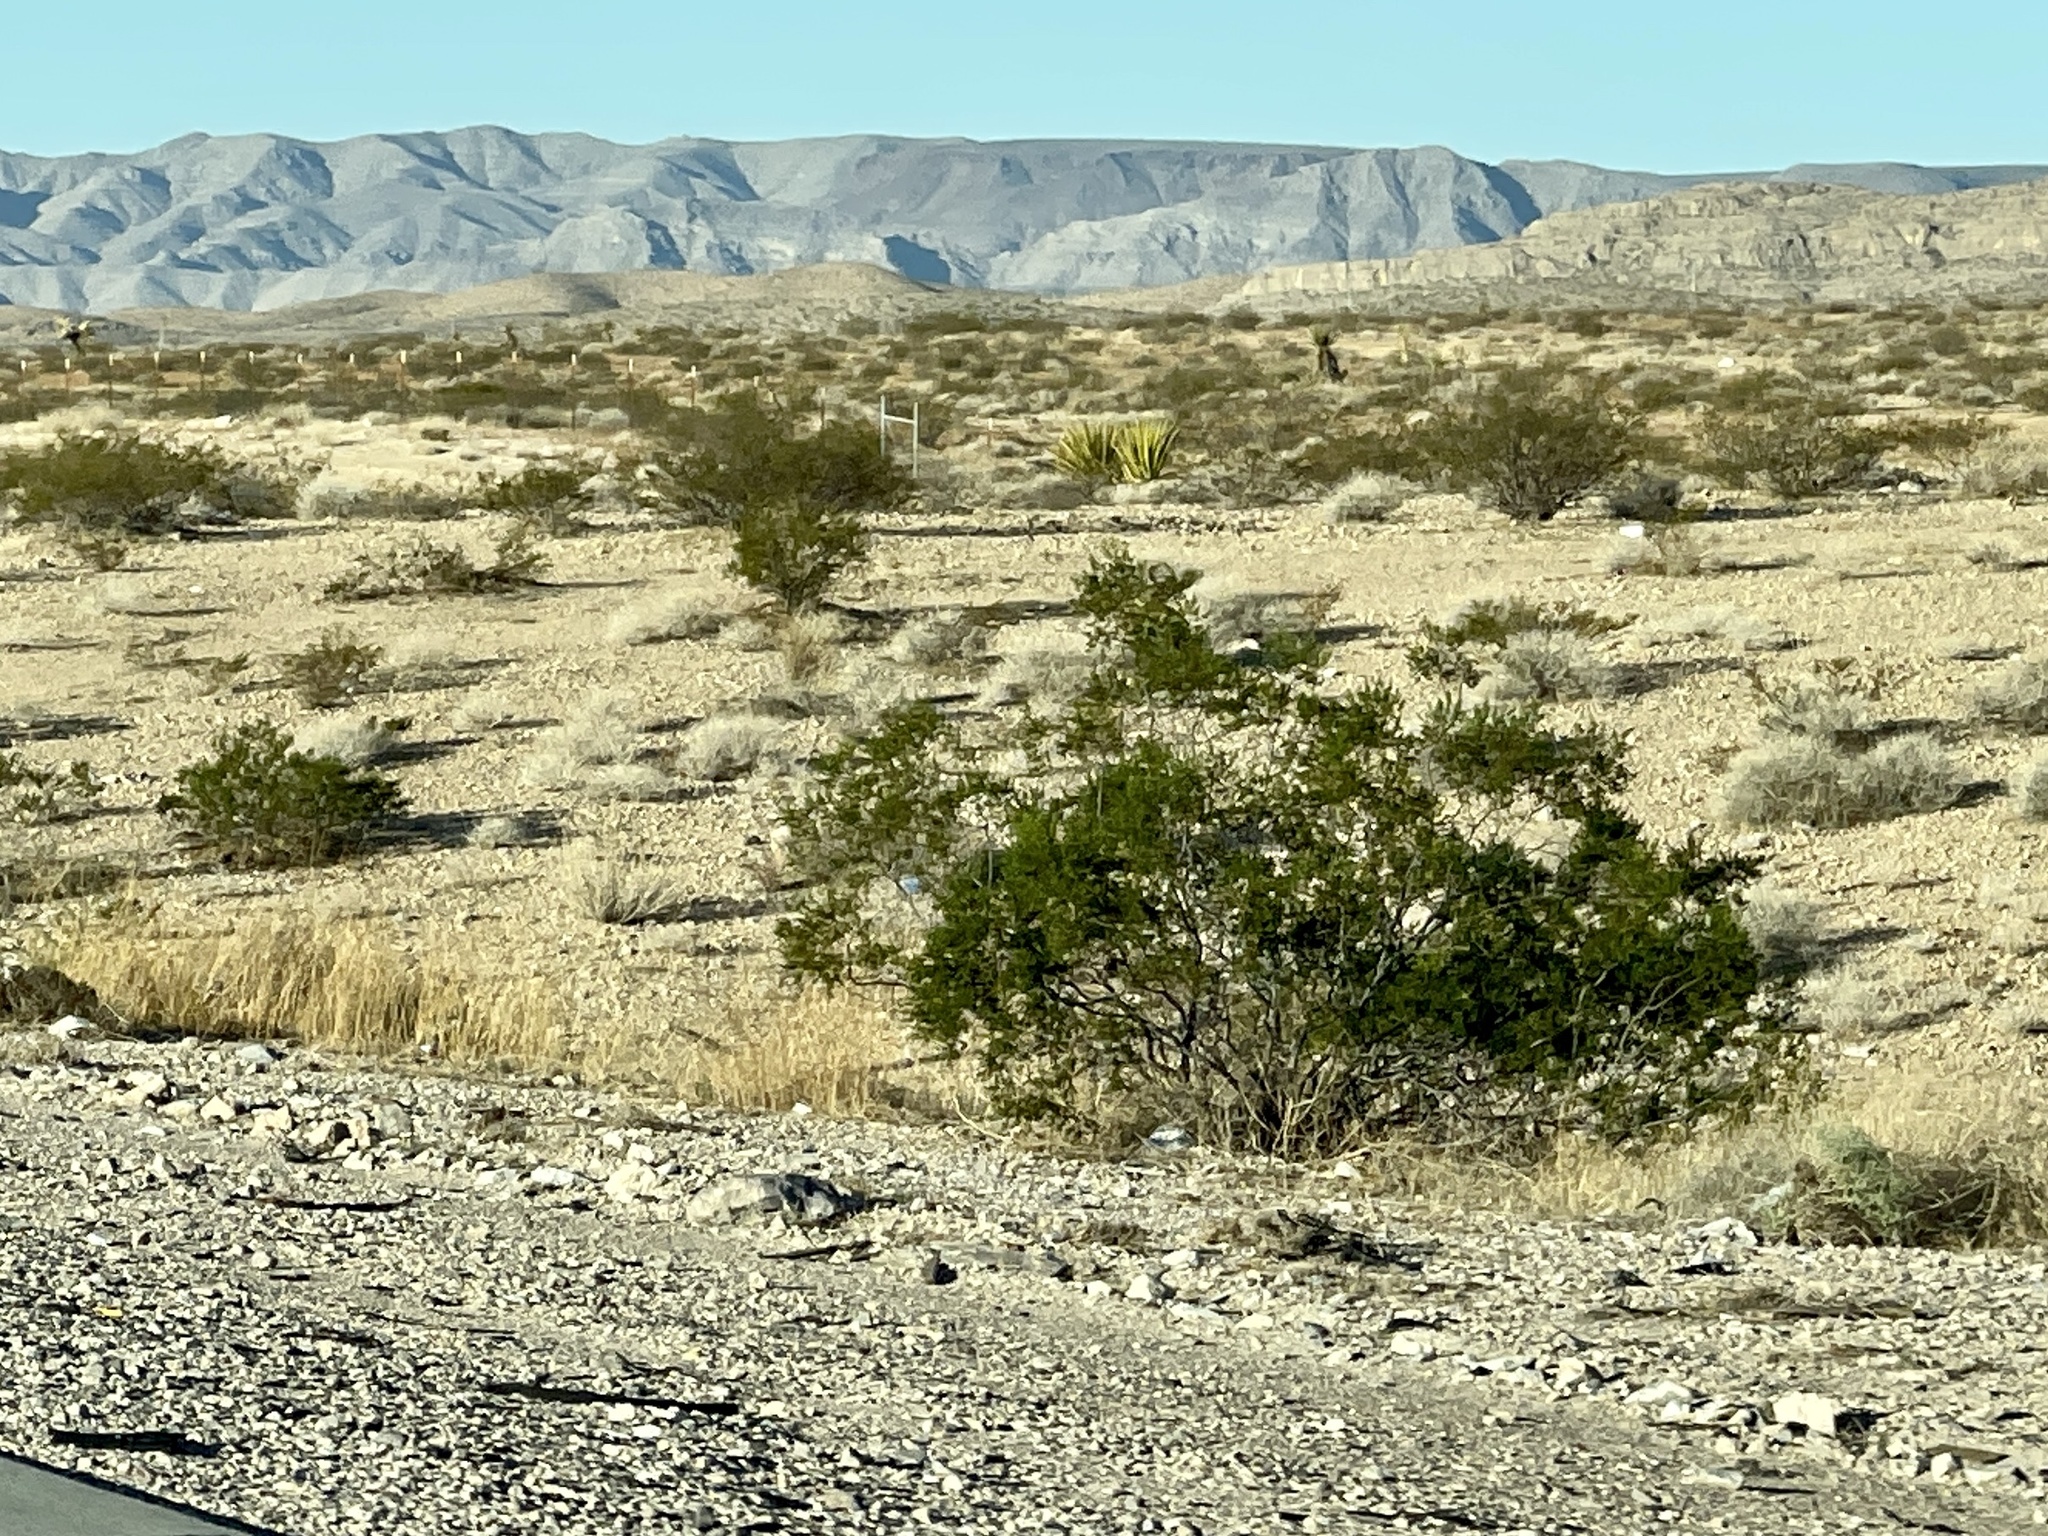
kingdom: Plantae
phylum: Tracheophyta
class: Magnoliopsida
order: Zygophyllales
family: Zygophyllaceae
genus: Larrea
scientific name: Larrea tridentata
